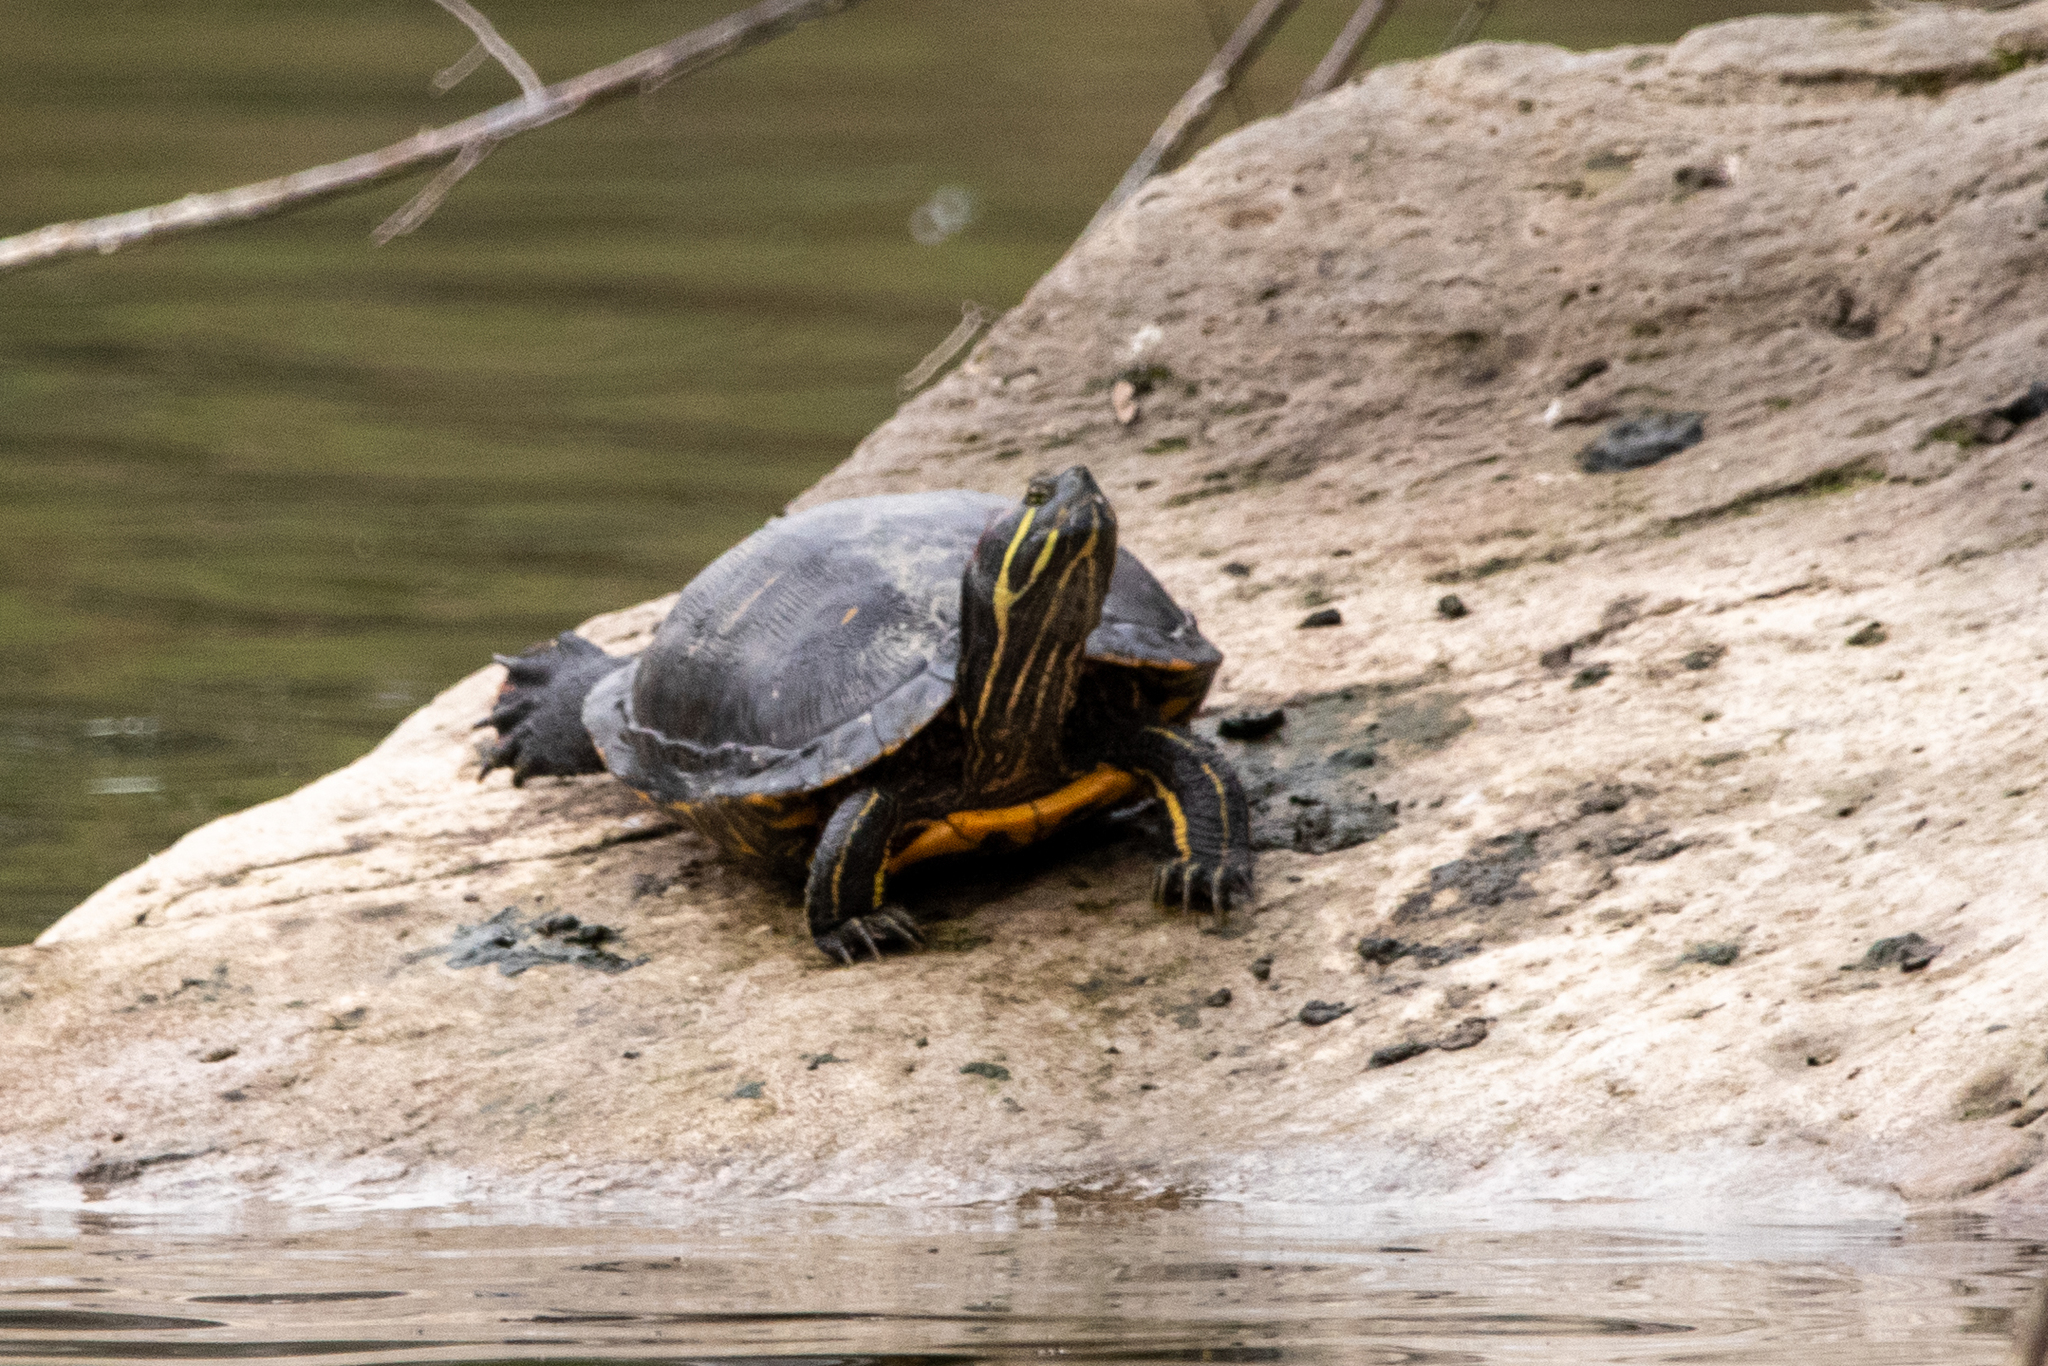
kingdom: Animalia
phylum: Chordata
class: Testudines
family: Emydidae
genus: Trachemys
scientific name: Trachemys scripta
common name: Slider
